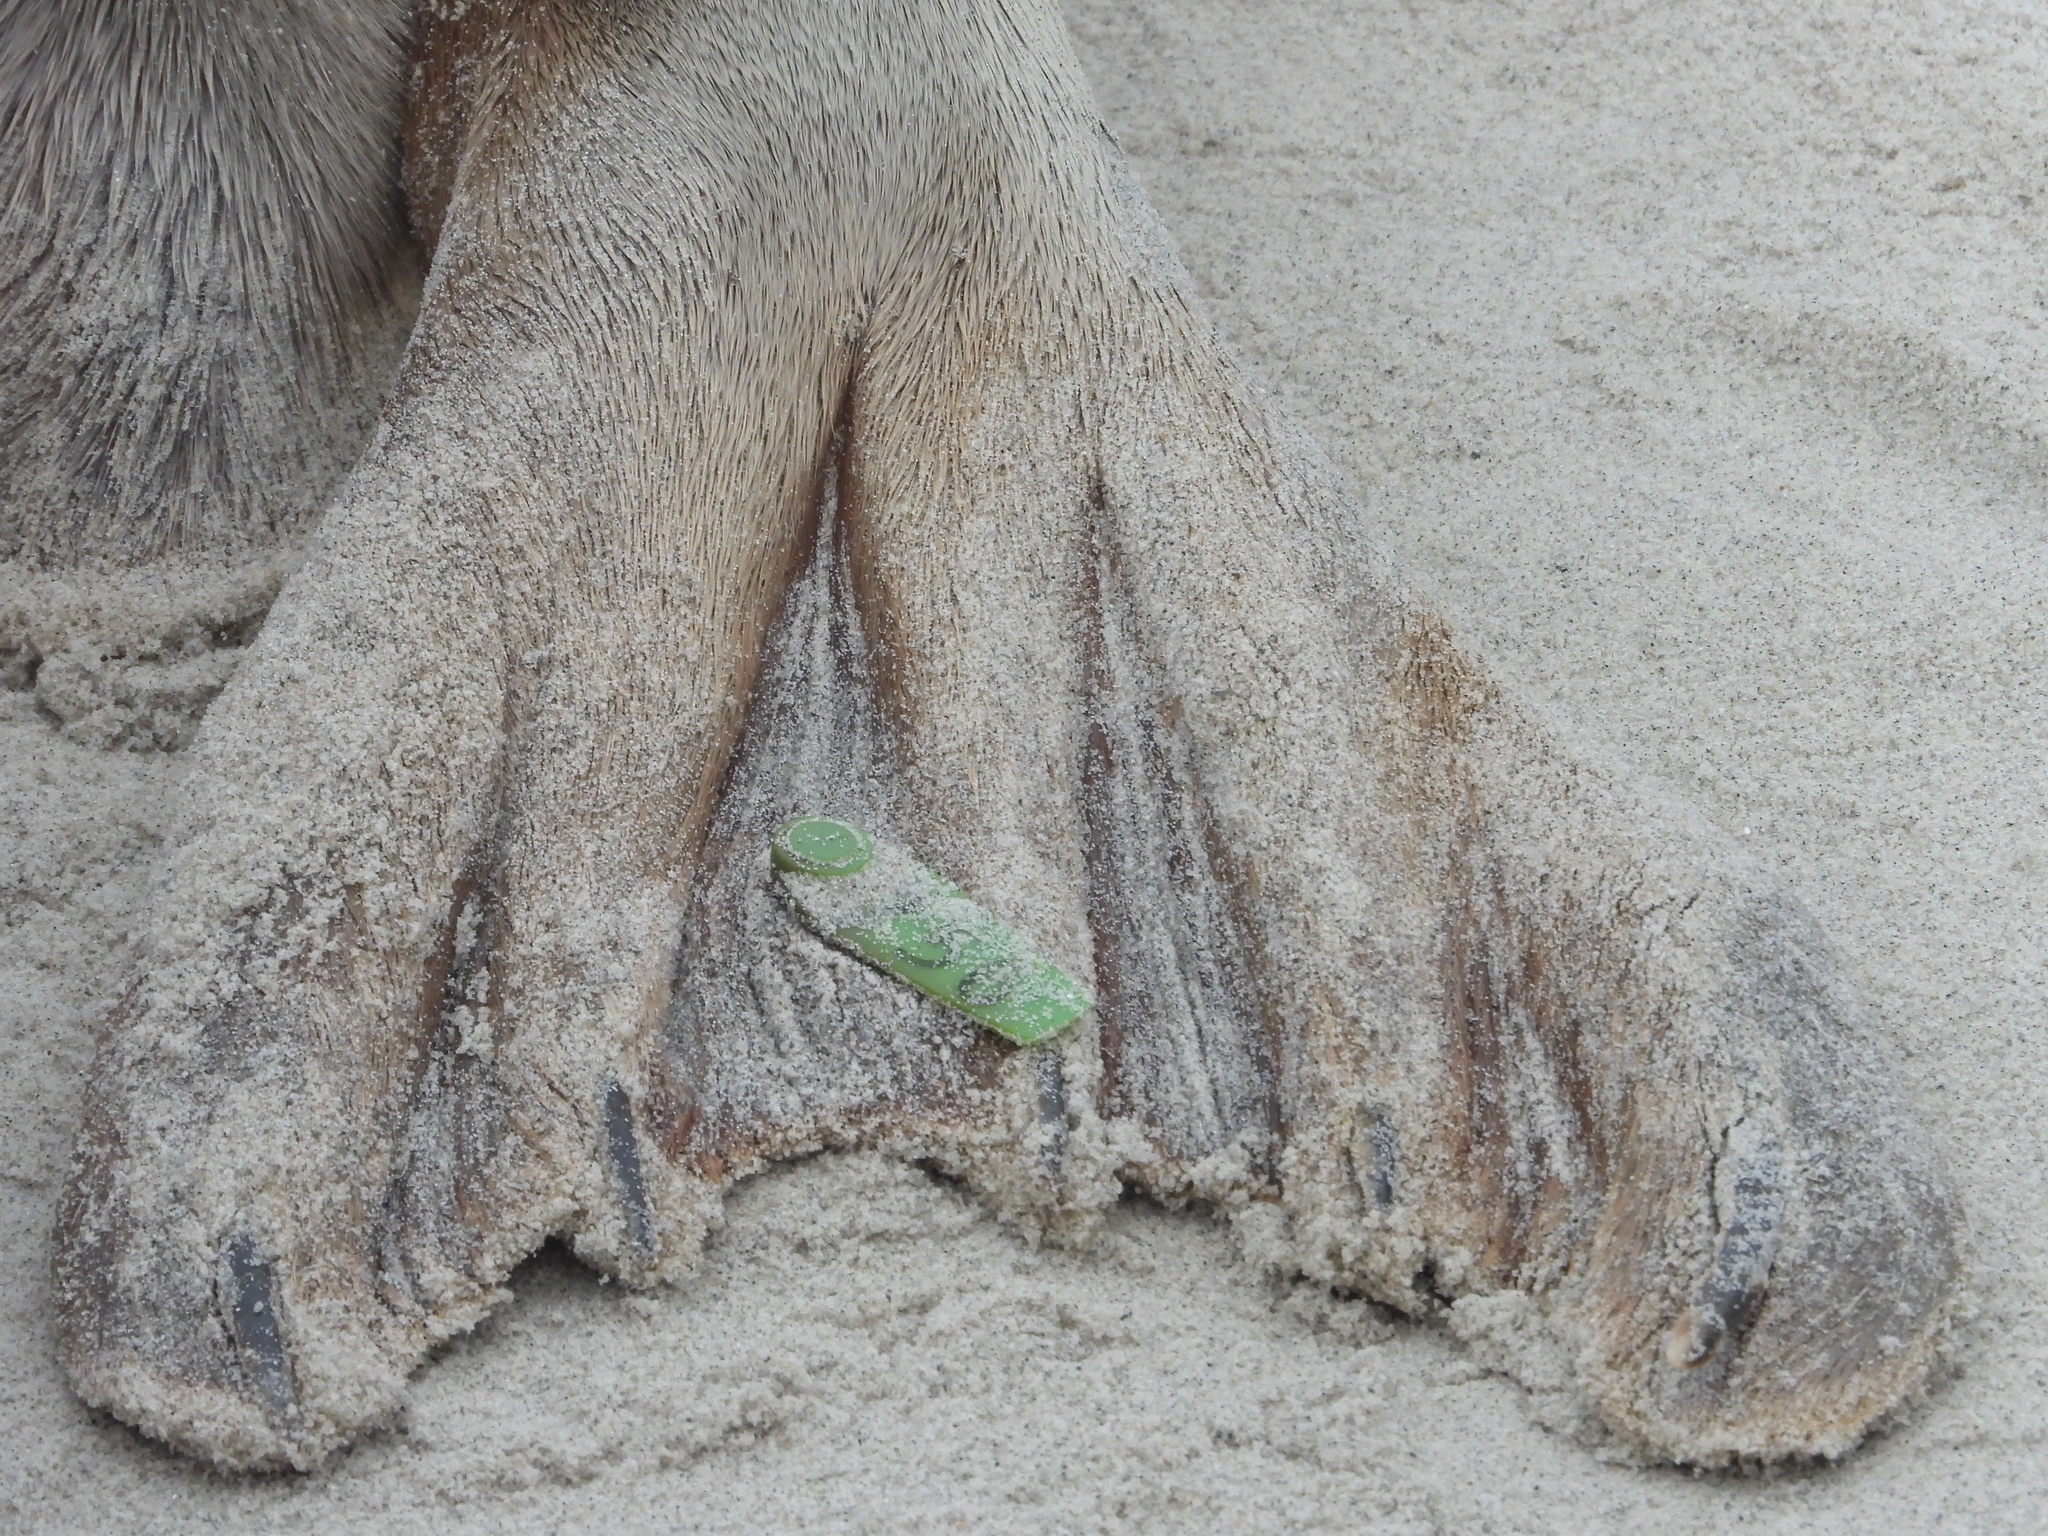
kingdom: Animalia
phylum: Chordata
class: Mammalia
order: Carnivora
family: Phocidae
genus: Halichoerus
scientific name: Halichoerus grypus
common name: Grey seal
